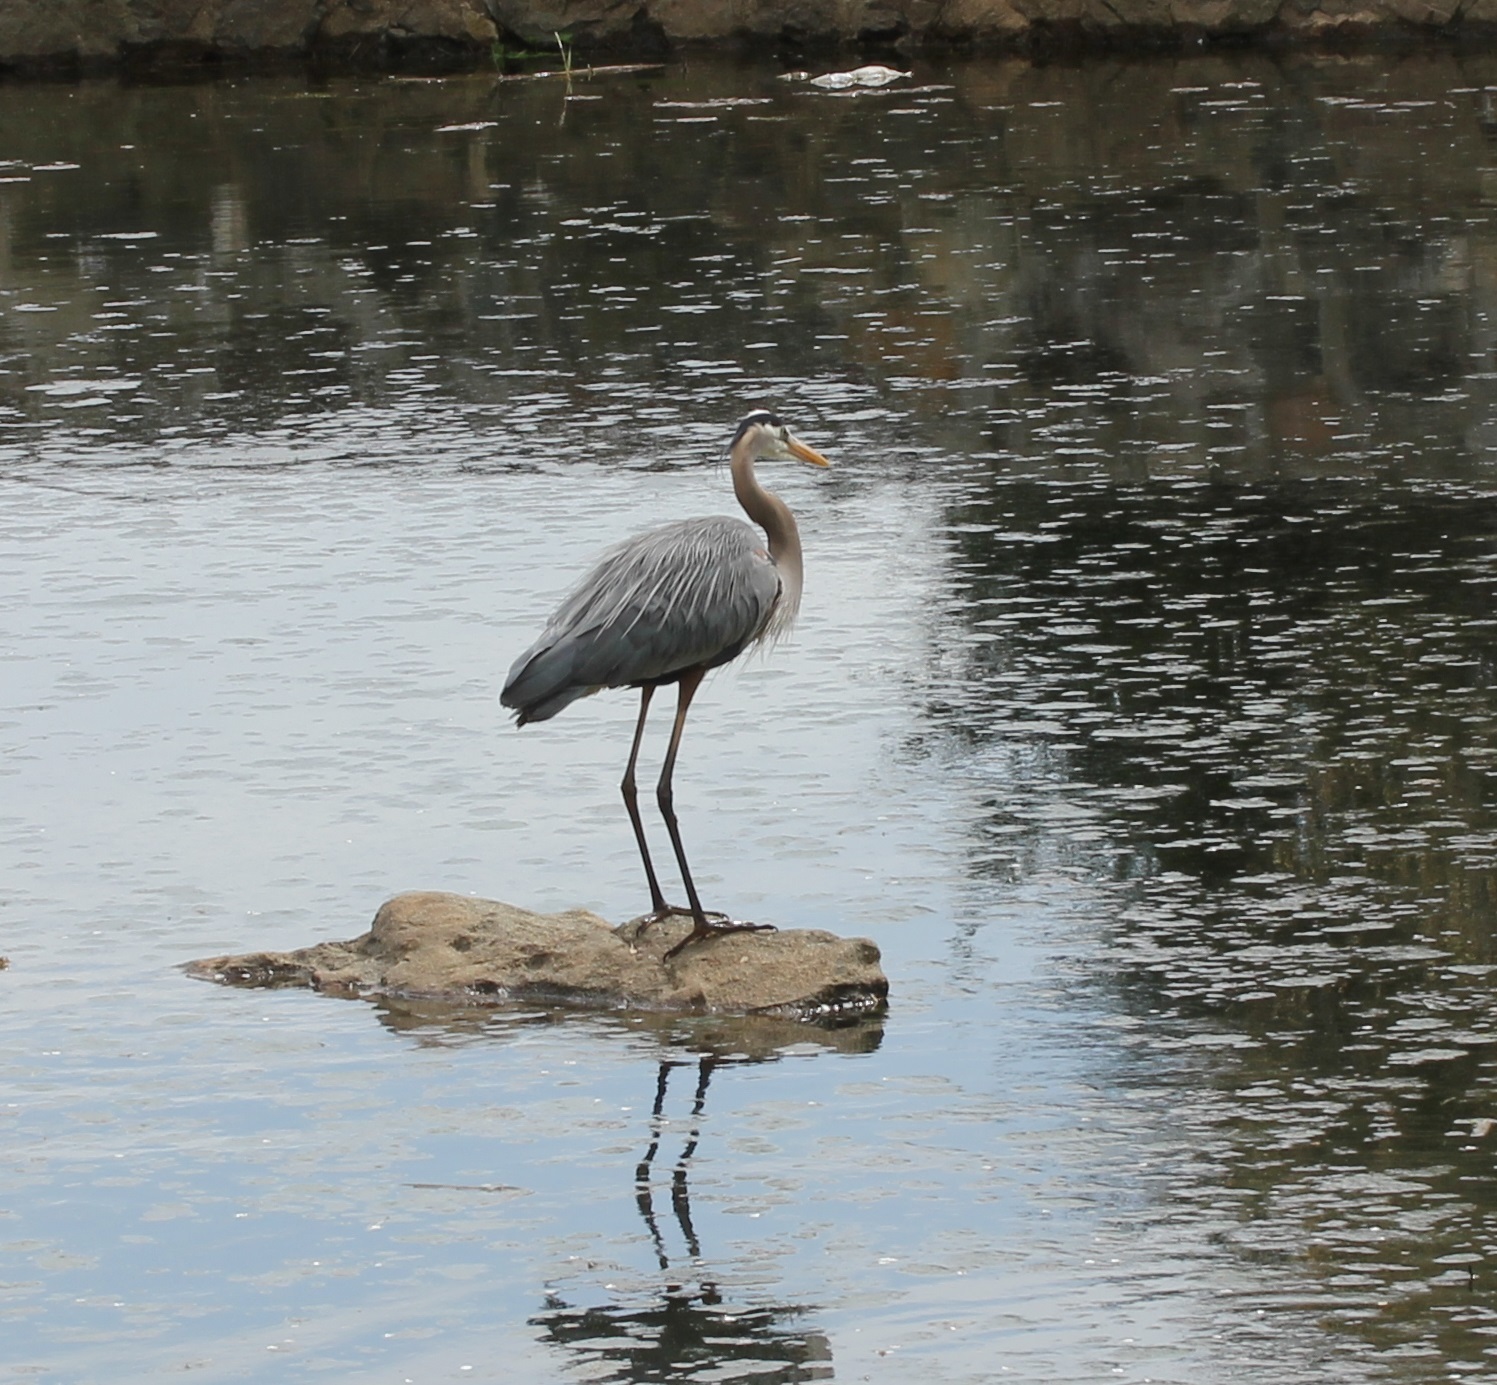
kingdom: Animalia
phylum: Chordata
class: Aves
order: Pelecaniformes
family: Ardeidae
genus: Ardea
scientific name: Ardea herodias
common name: Great blue heron
